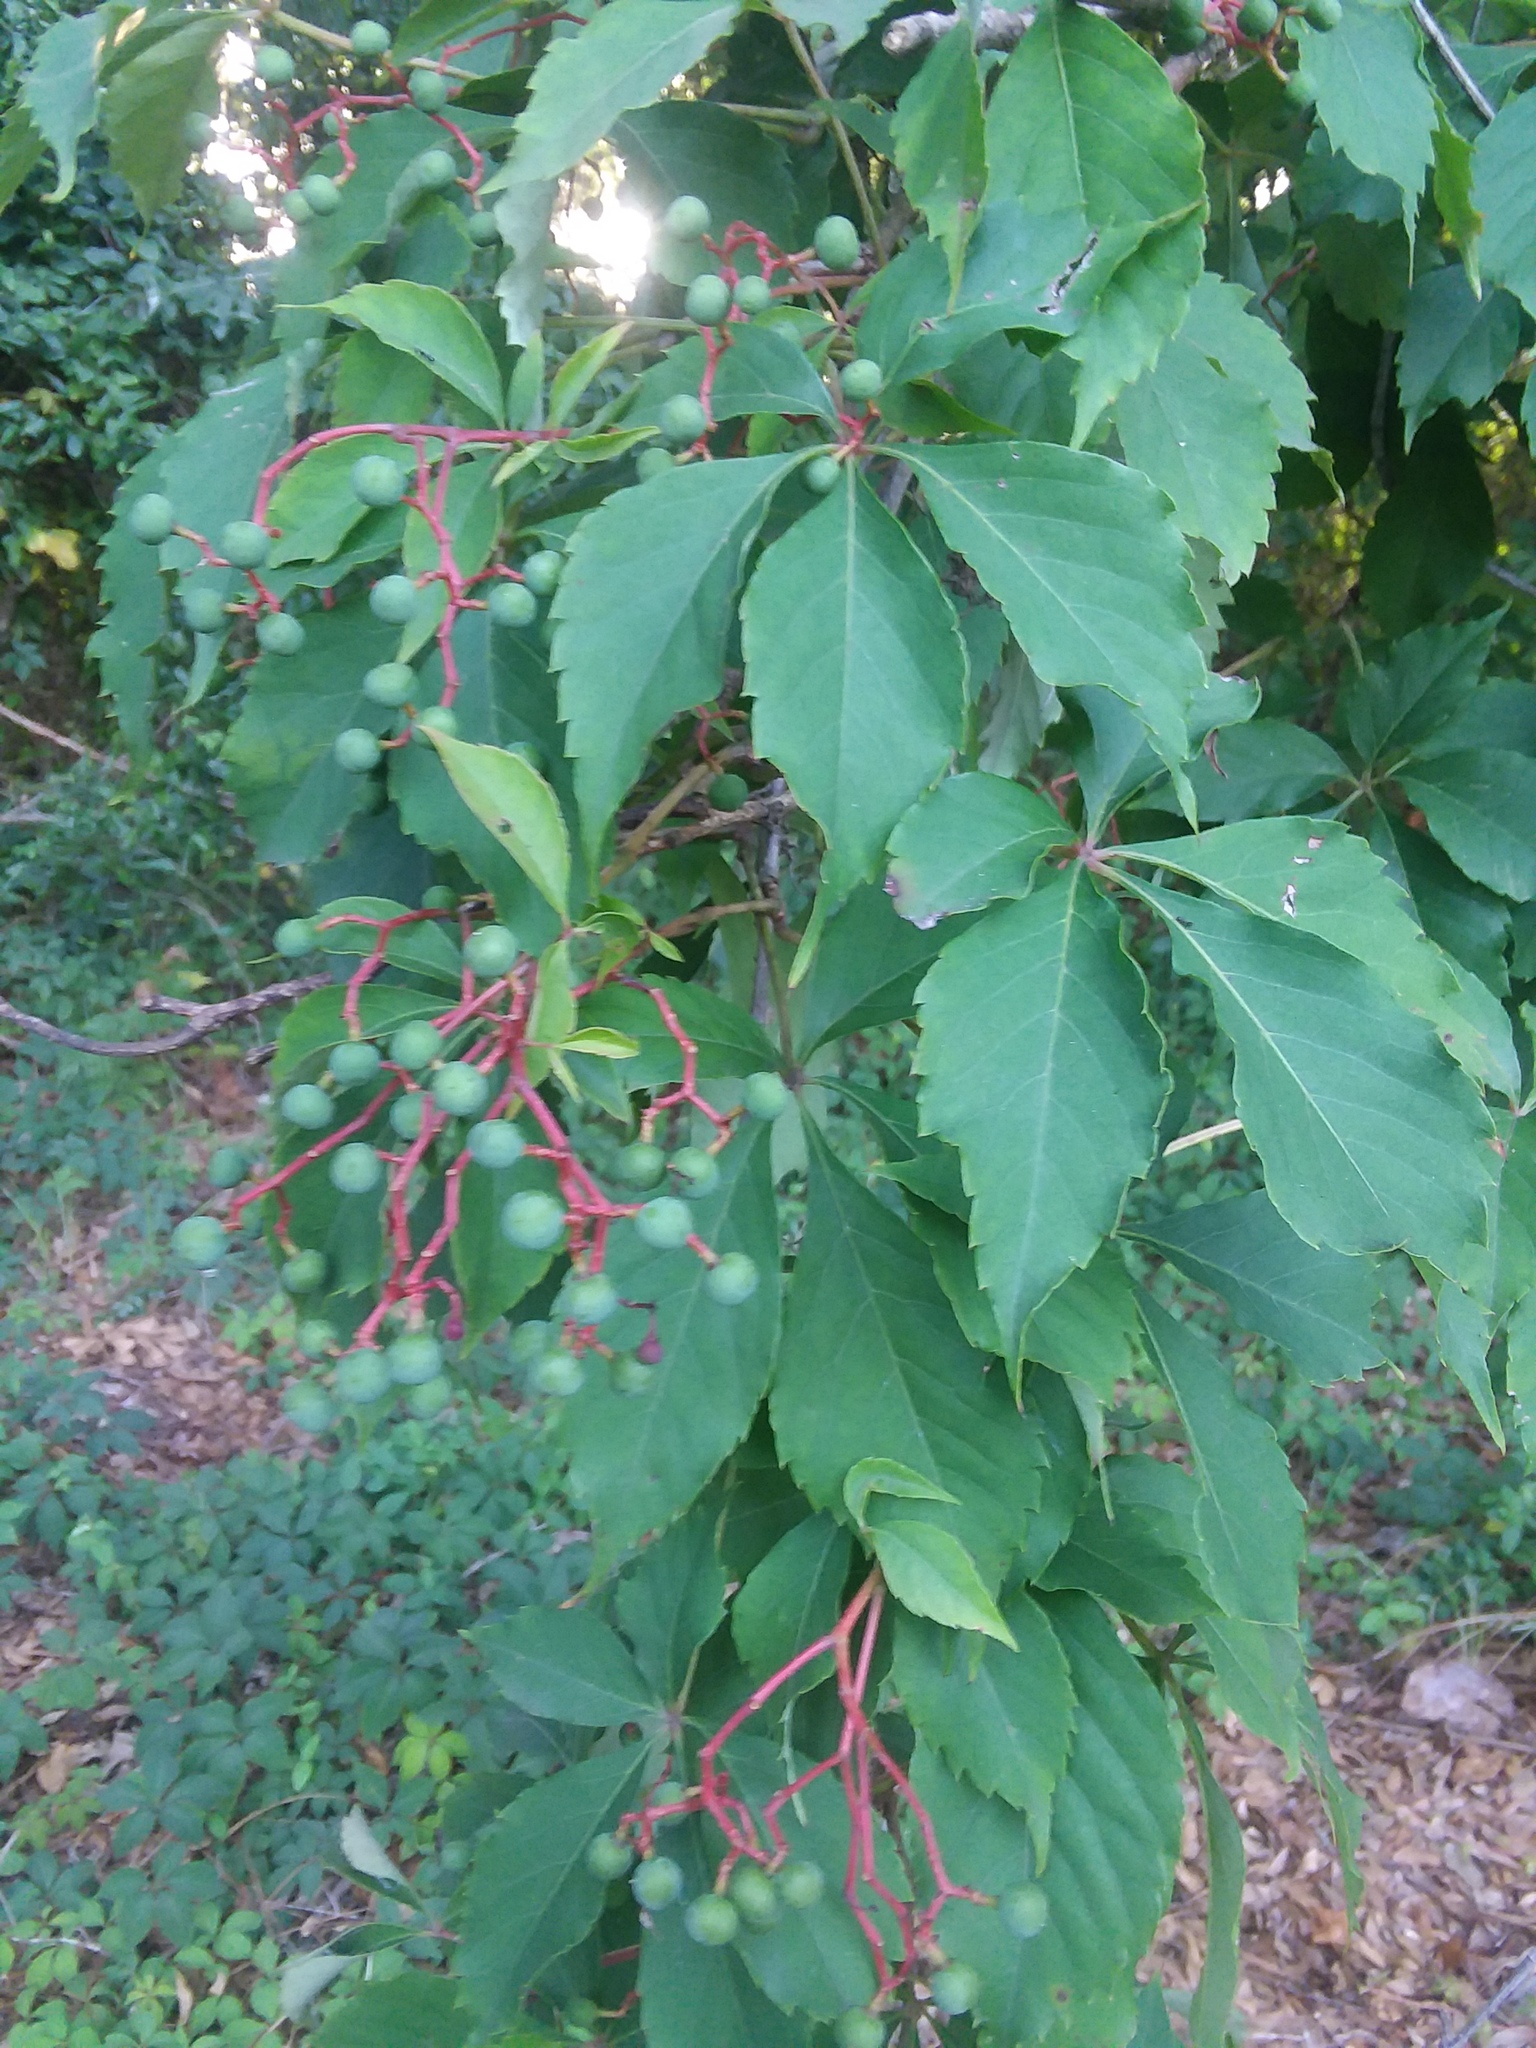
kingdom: Plantae
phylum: Tracheophyta
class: Magnoliopsida
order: Vitales
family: Vitaceae
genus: Parthenocissus
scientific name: Parthenocissus quinquefolia
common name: Virginia-creeper
